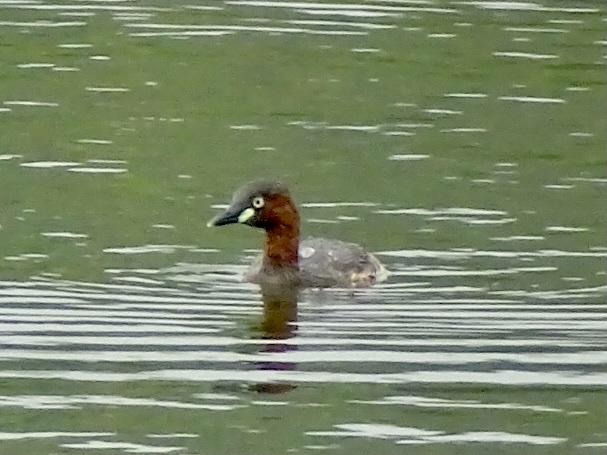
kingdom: Animalia
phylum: Chordata
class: Aves
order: Podicipediformes
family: Podicipedidae
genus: Tachybaptus
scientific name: Tachybaptus ruficollis
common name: Little grebe
